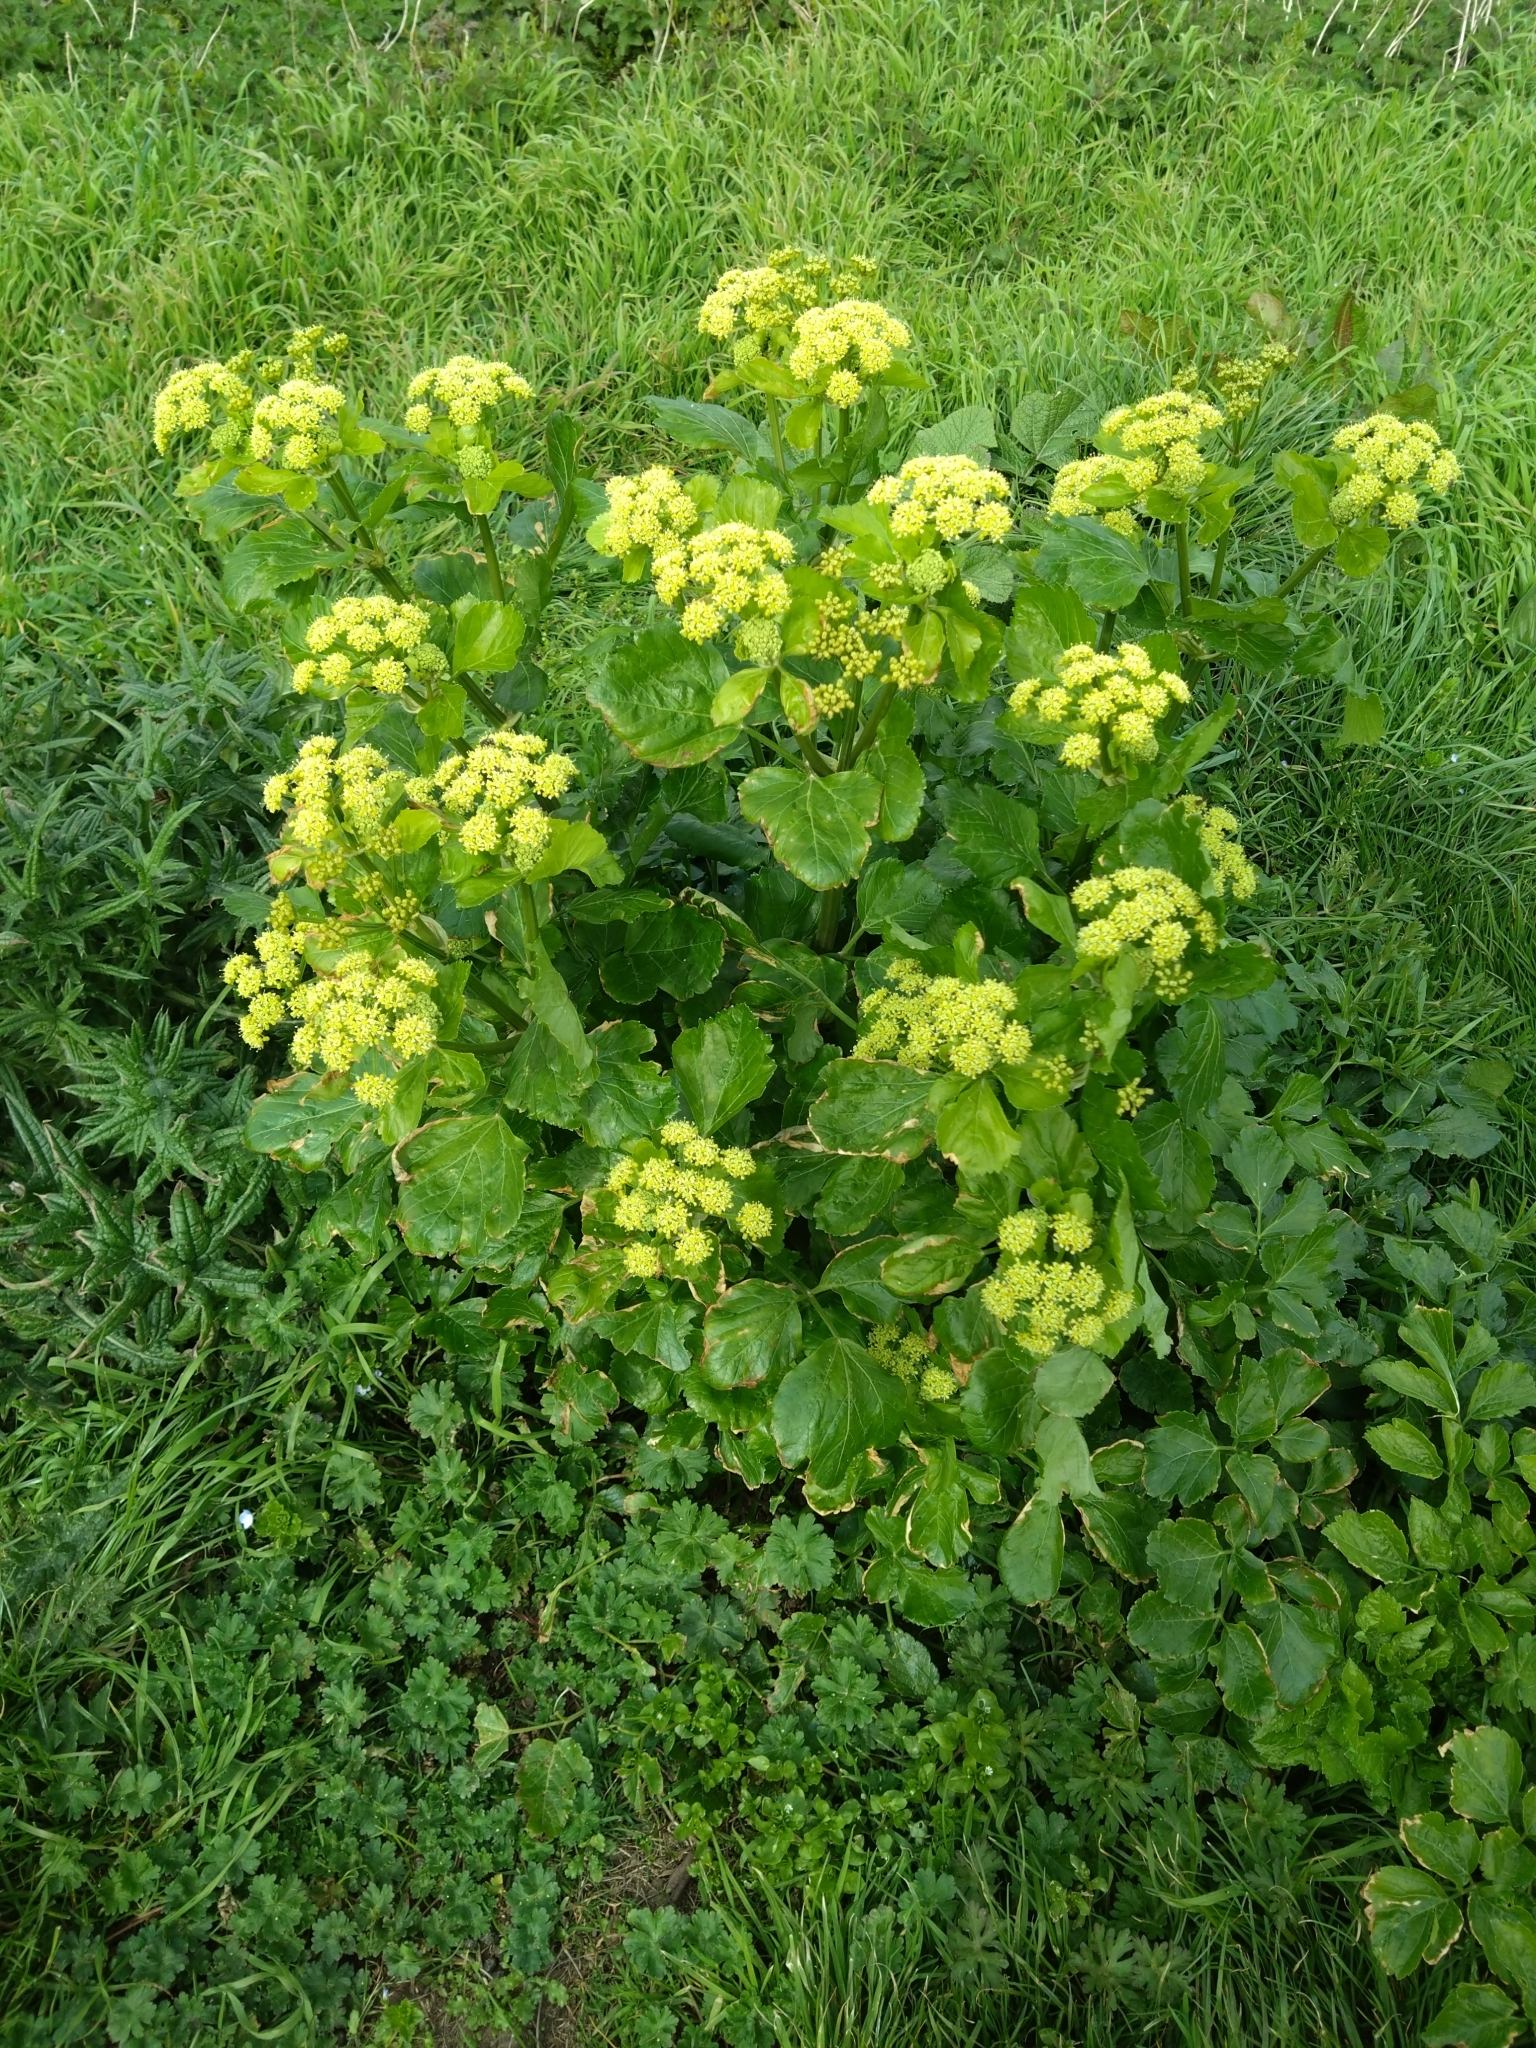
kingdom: Plantae
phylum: Tracheophyta
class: Magnoliopsida
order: Apiales
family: Apiaceae
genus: Smyrnium
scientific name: Smyrnium olusatrum
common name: Alexanders
